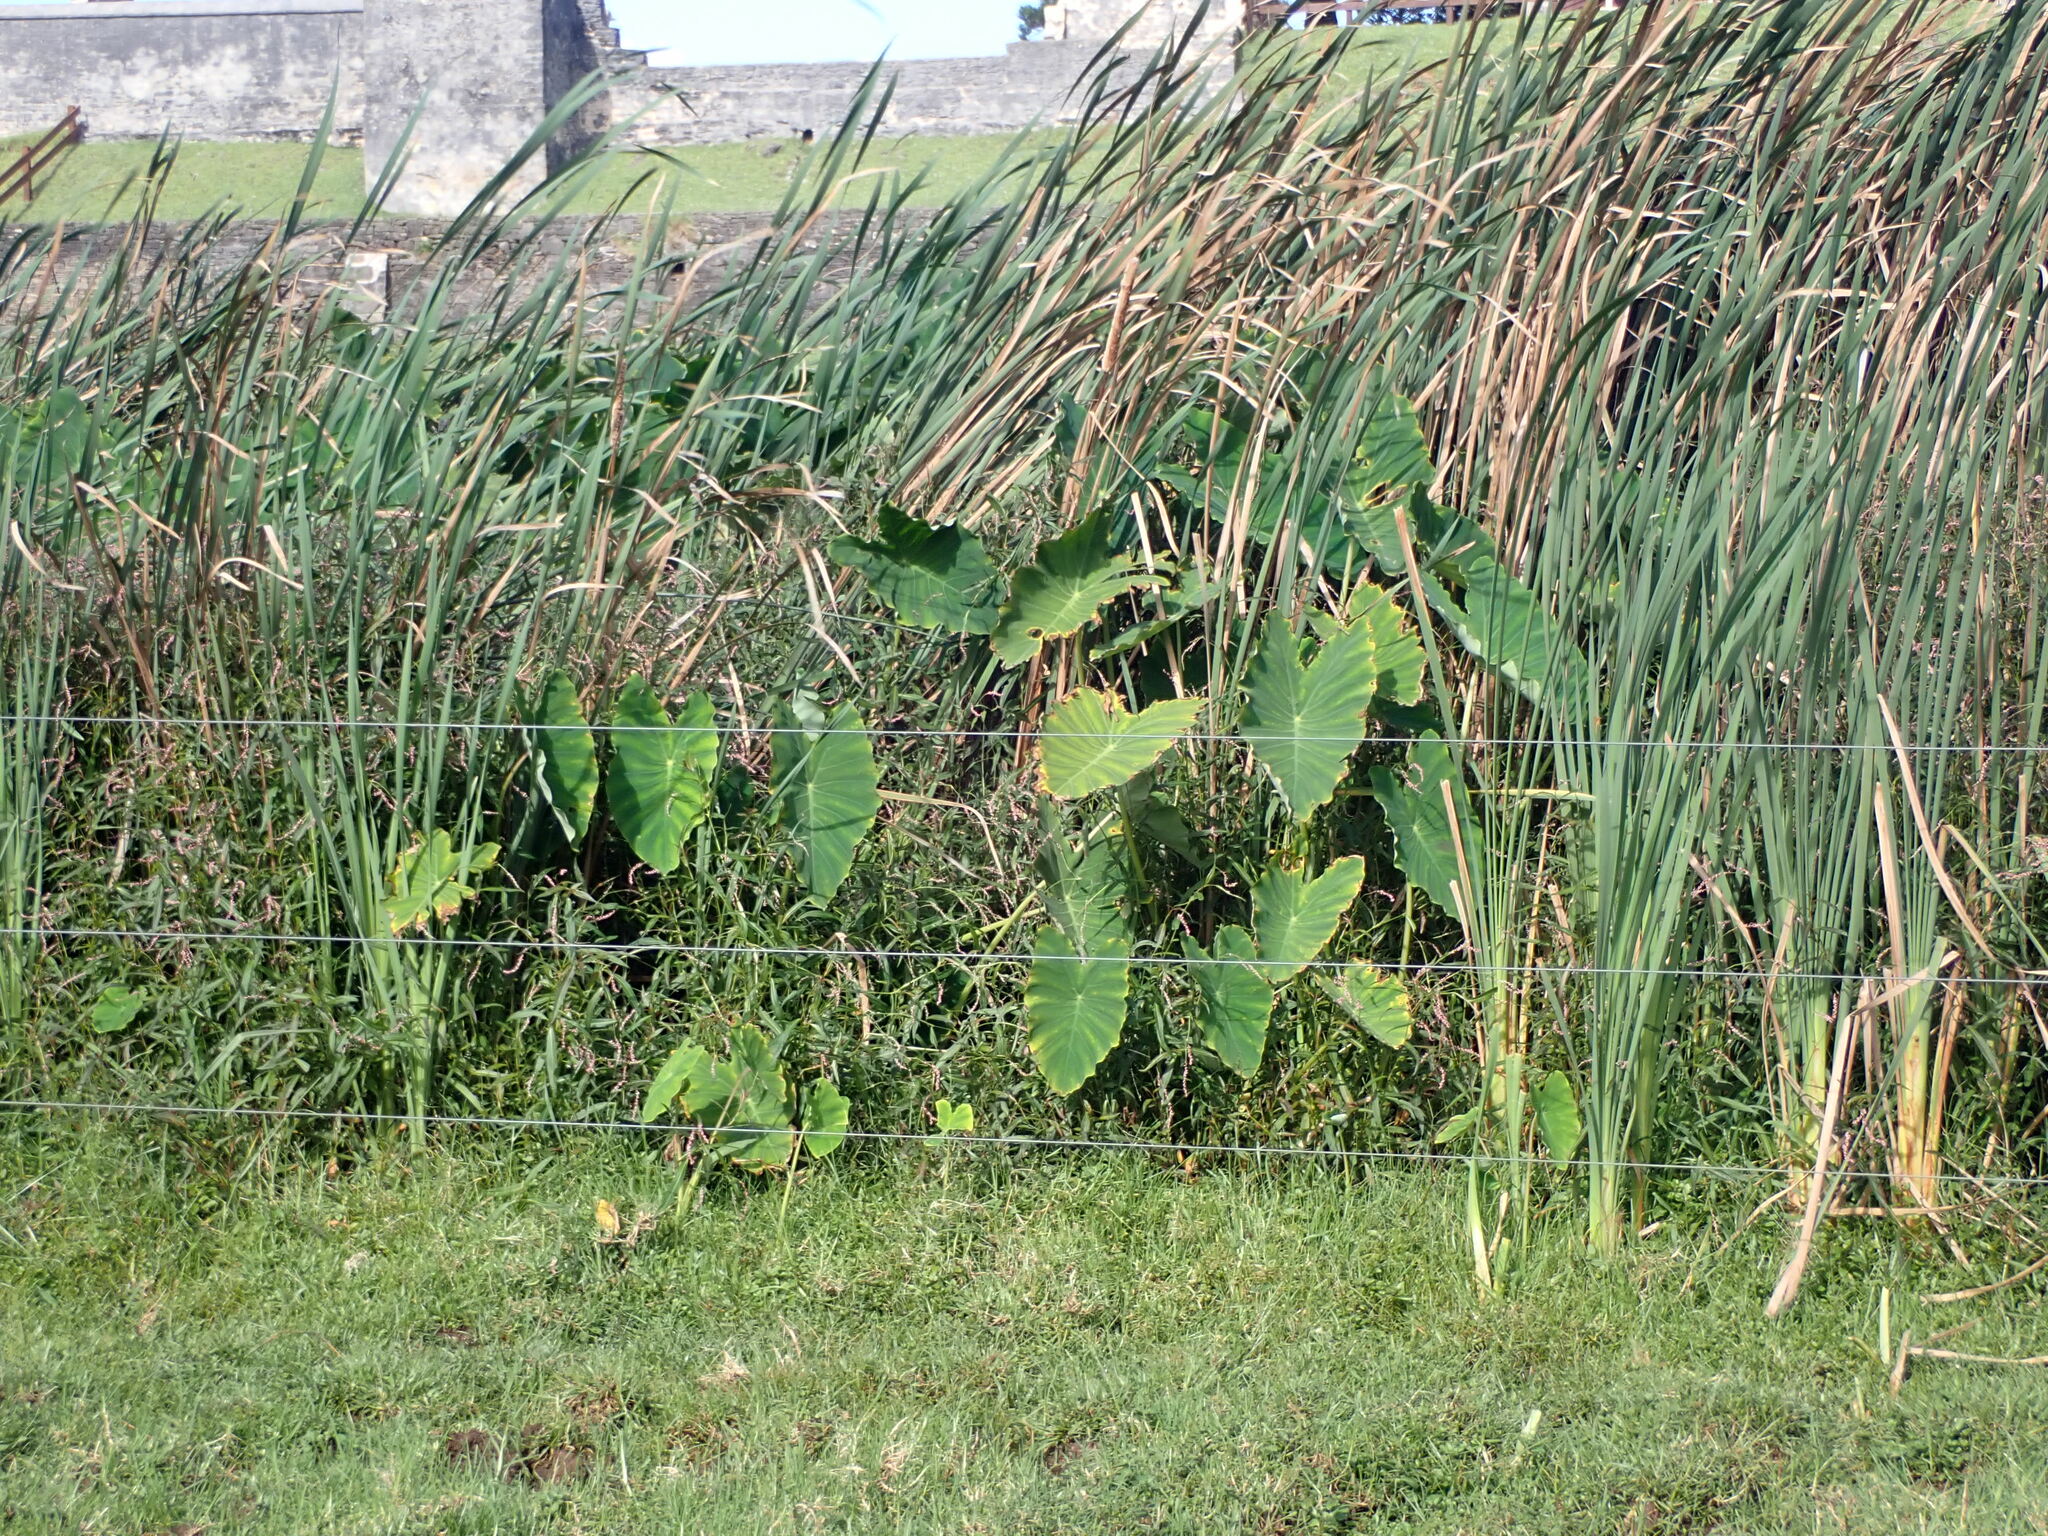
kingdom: Plantae
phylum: Tracheophyta
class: Liliopsida
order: Poales
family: Typhaceae
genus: Typha
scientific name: Typha orientalis
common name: Bullrush
